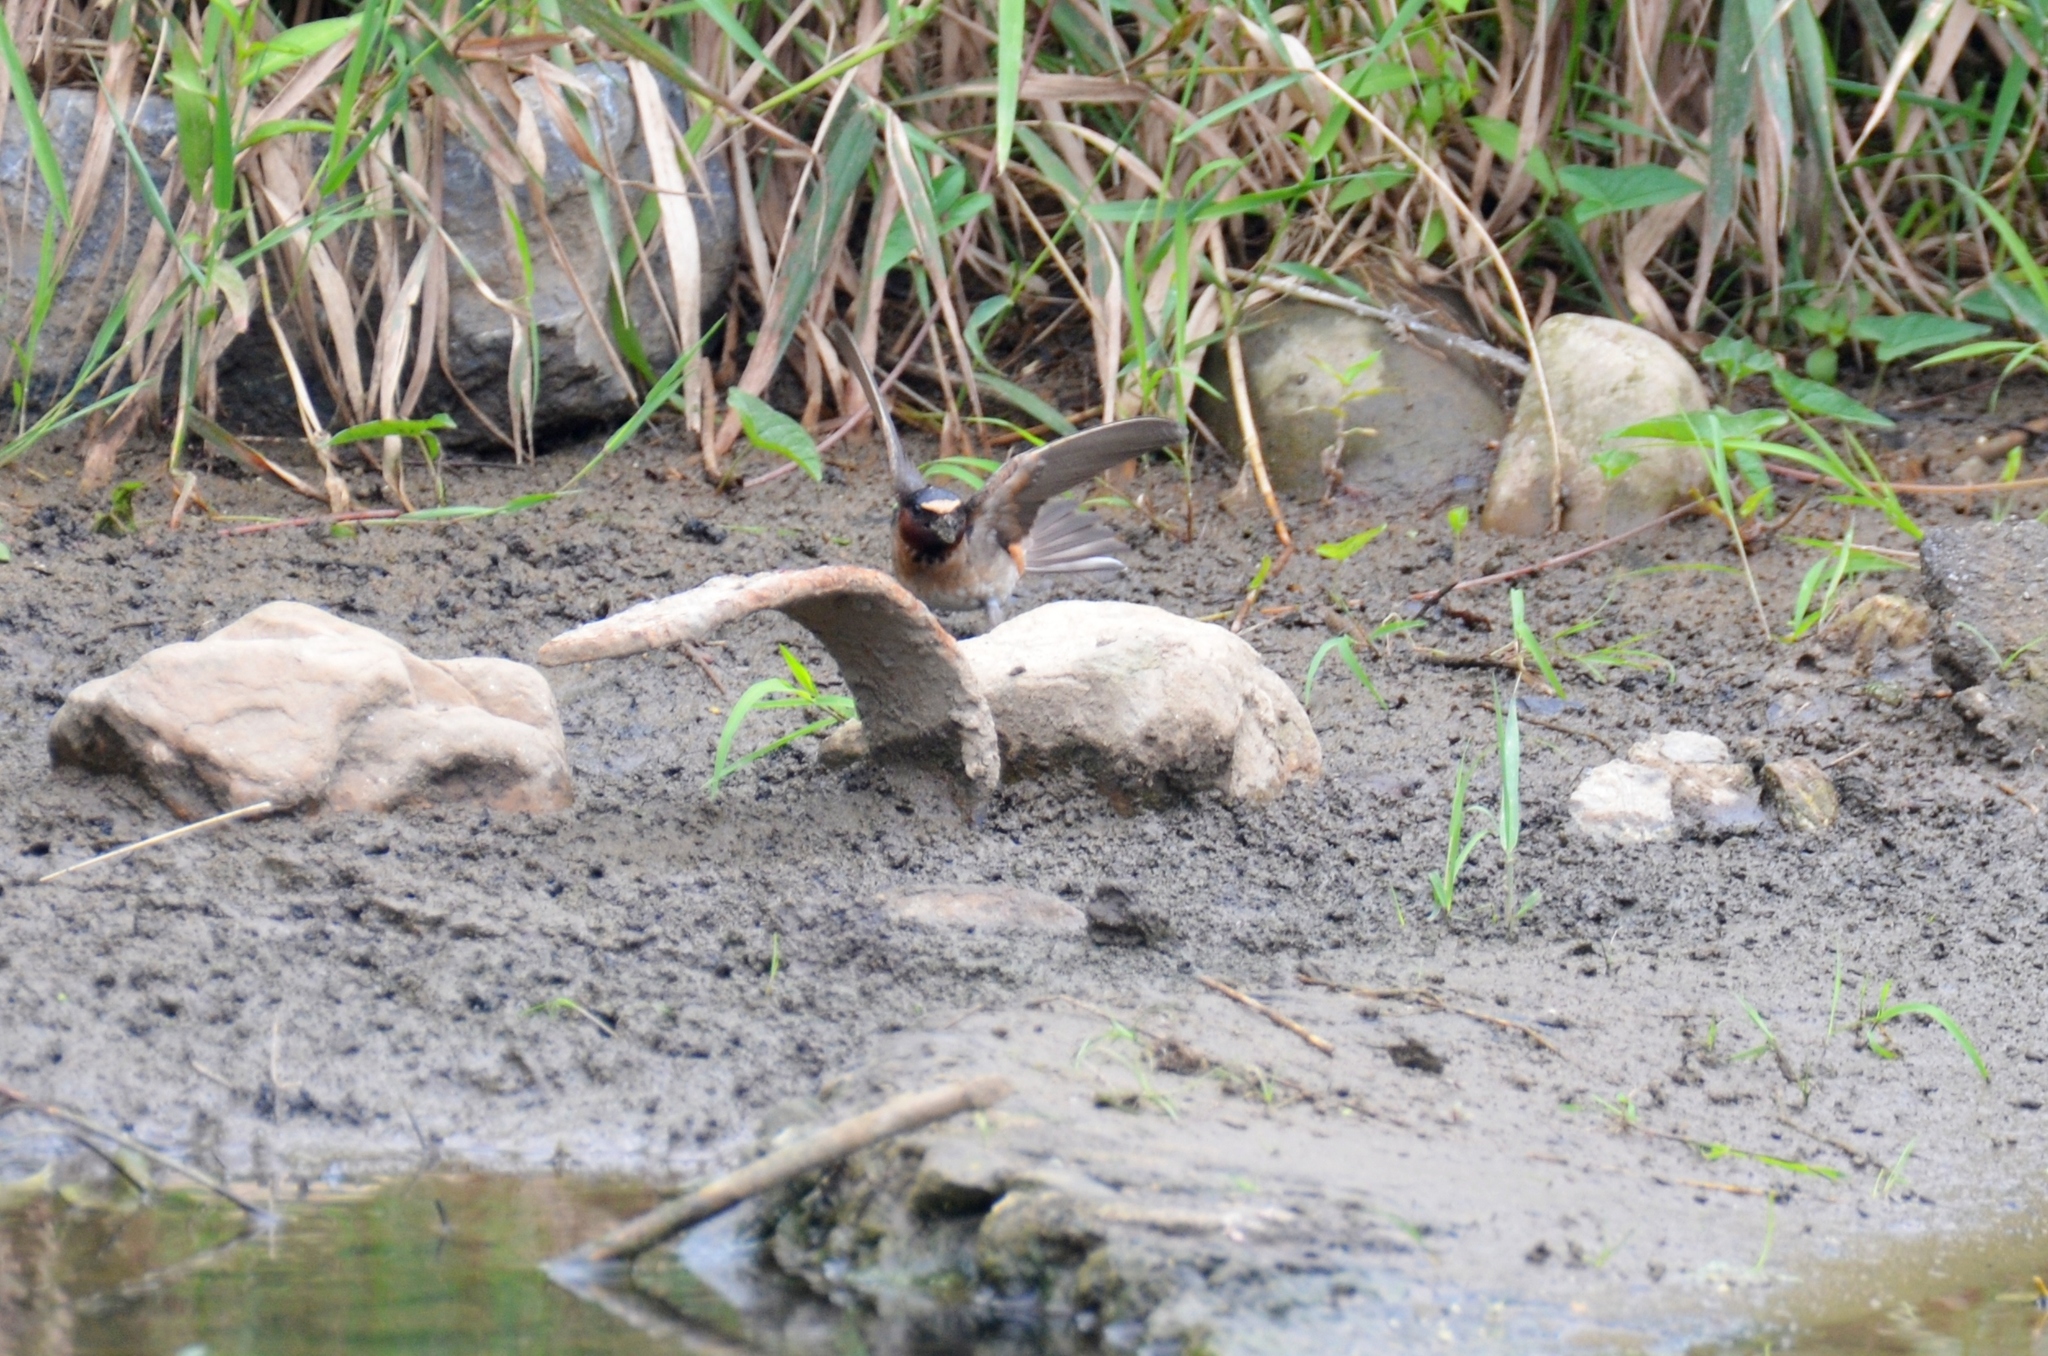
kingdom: Animalia
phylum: Chordata
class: Aves
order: Passeriformes
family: Hirundinidae
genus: Petrochelidon
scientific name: Petrochelidon pyrrhonota
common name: American cliff swallow
